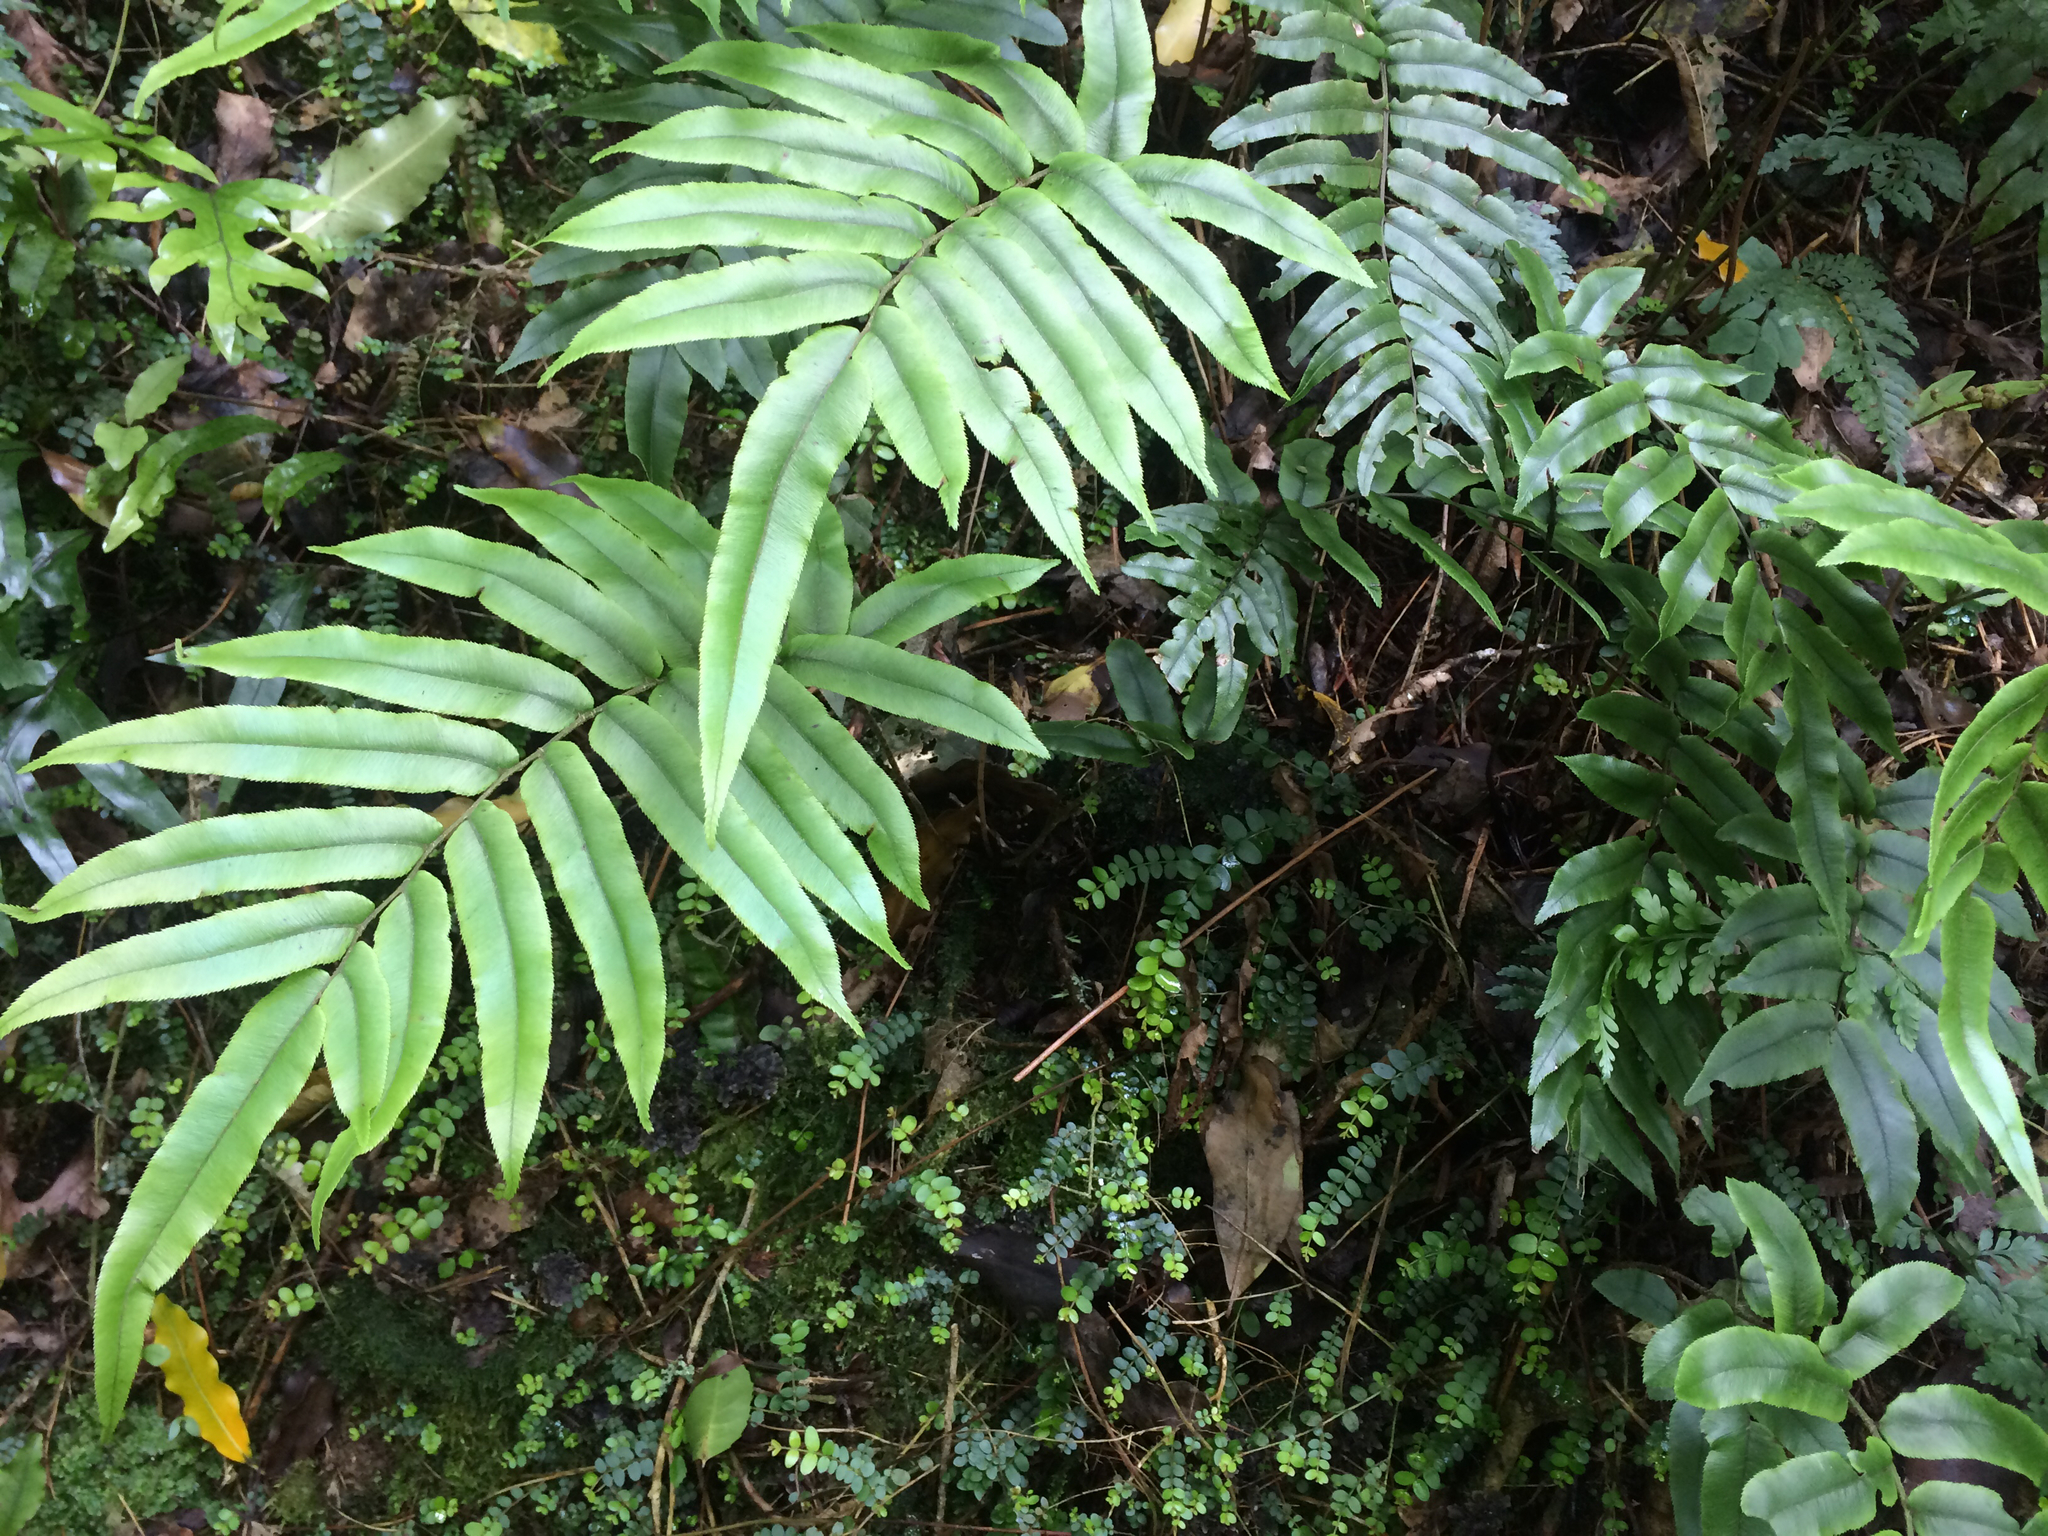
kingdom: Plantae
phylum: Tracheophyta
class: Polypodiopsida
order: Polypodiales
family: Blechnaceae
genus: Parablechnum
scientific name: Parablechnum procerum
